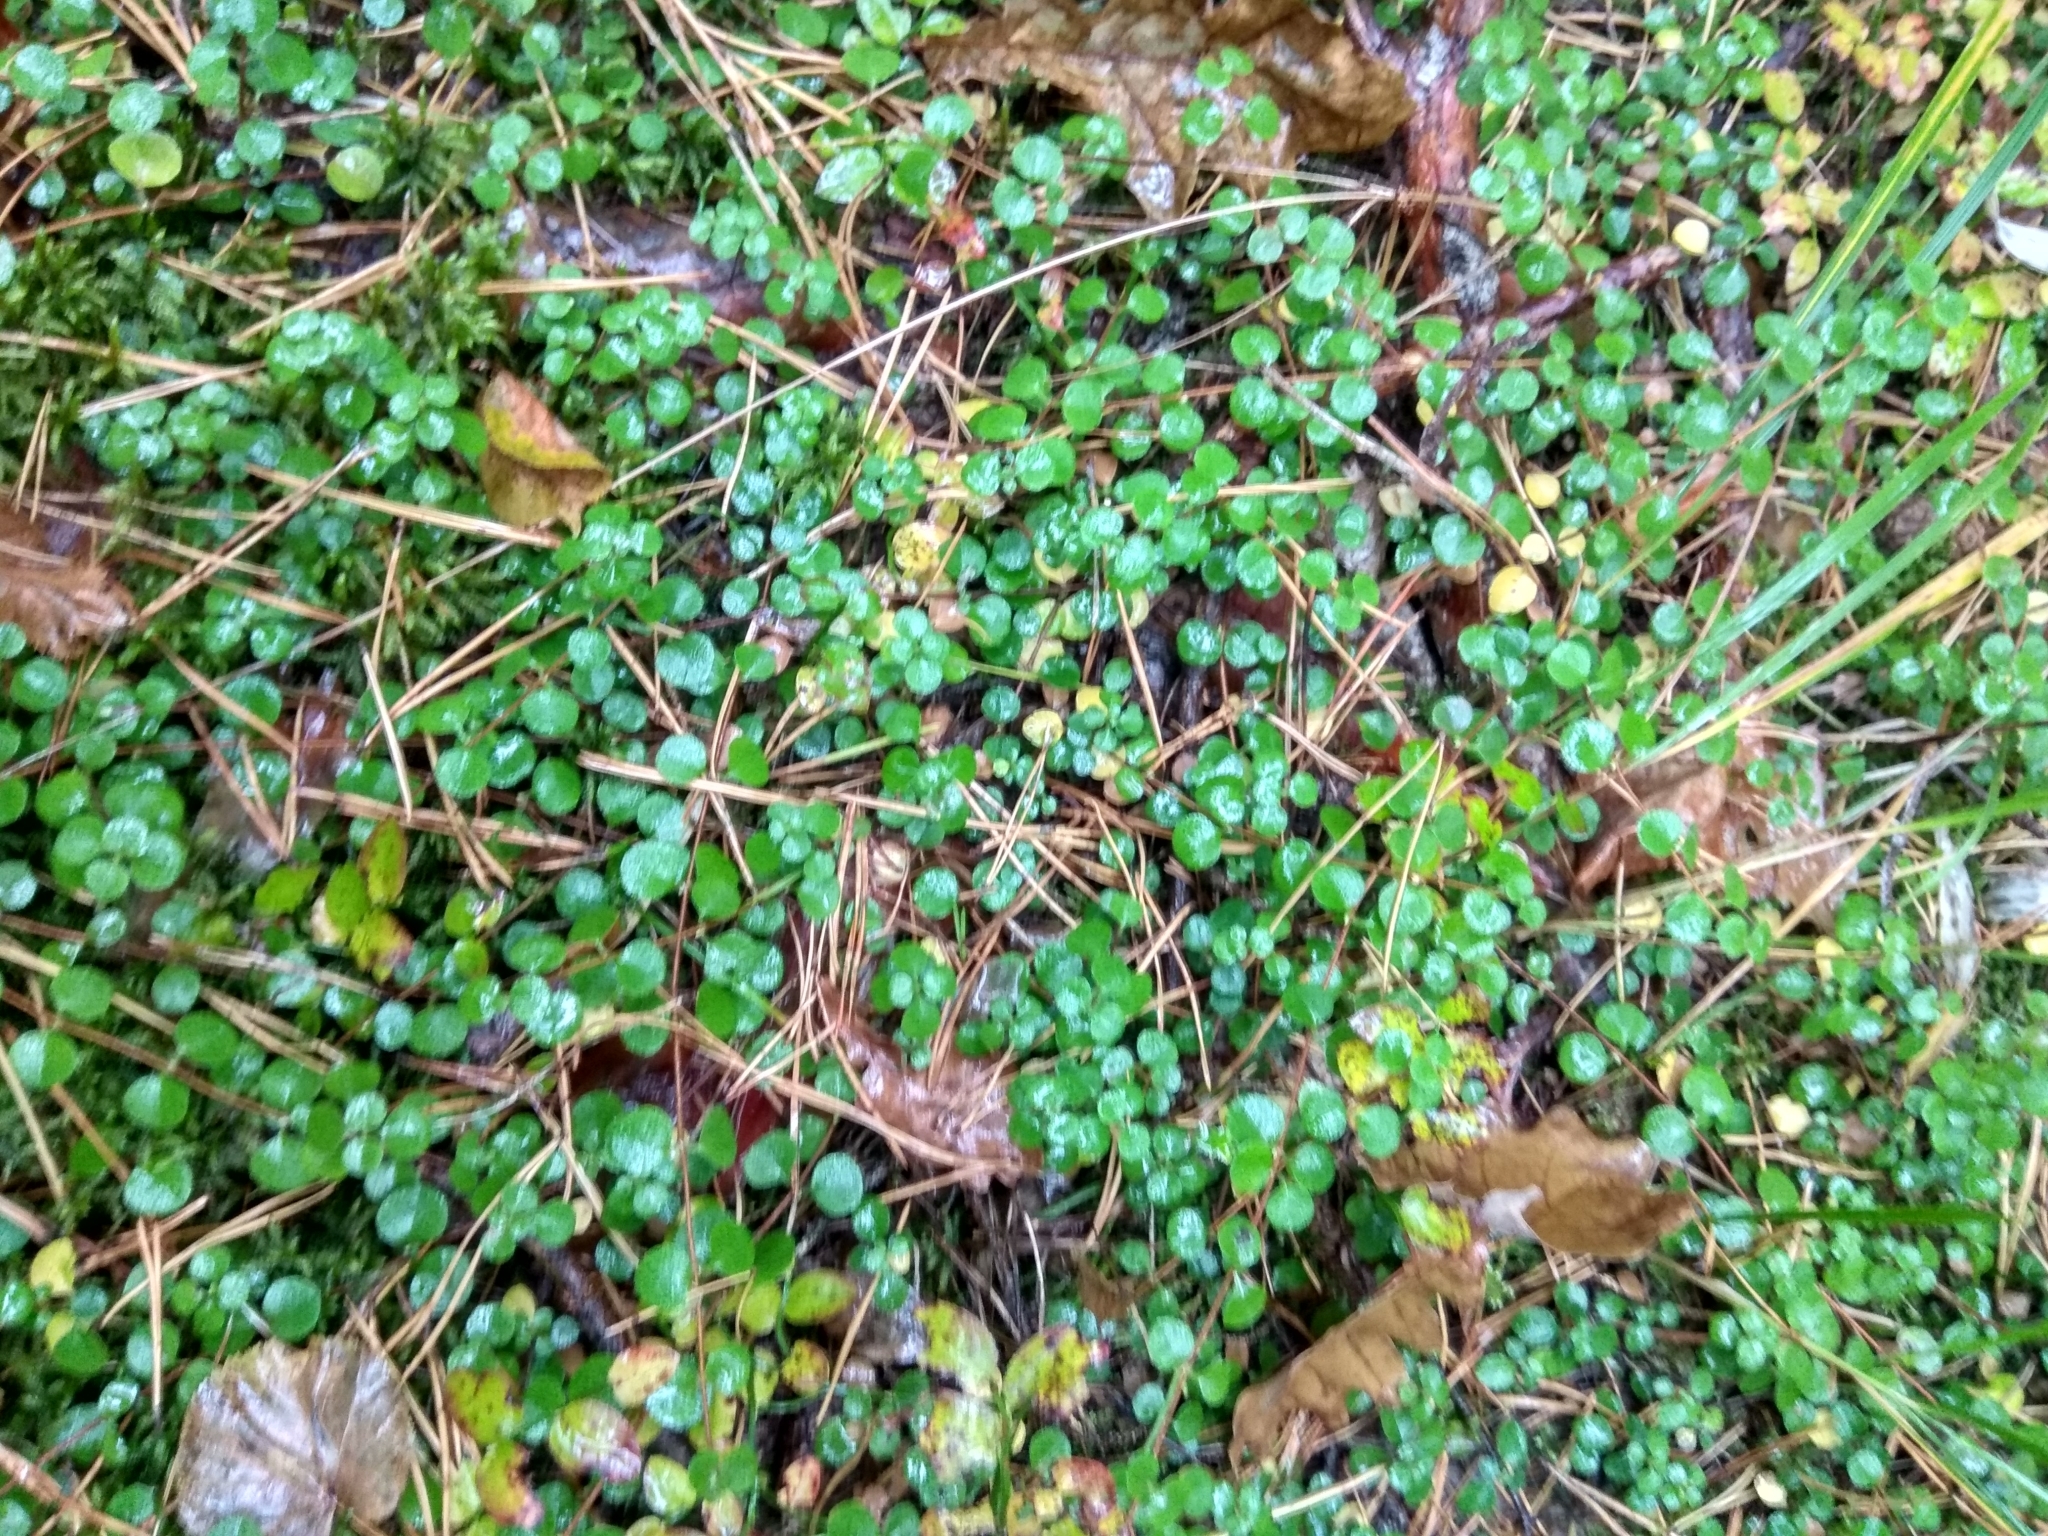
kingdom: Plantae
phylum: Tracheophyta
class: Magnoliopsida
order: Dipsacales
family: Caprifoliaceae
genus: Linnaea
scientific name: Linnaea borealis
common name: Twinflower
